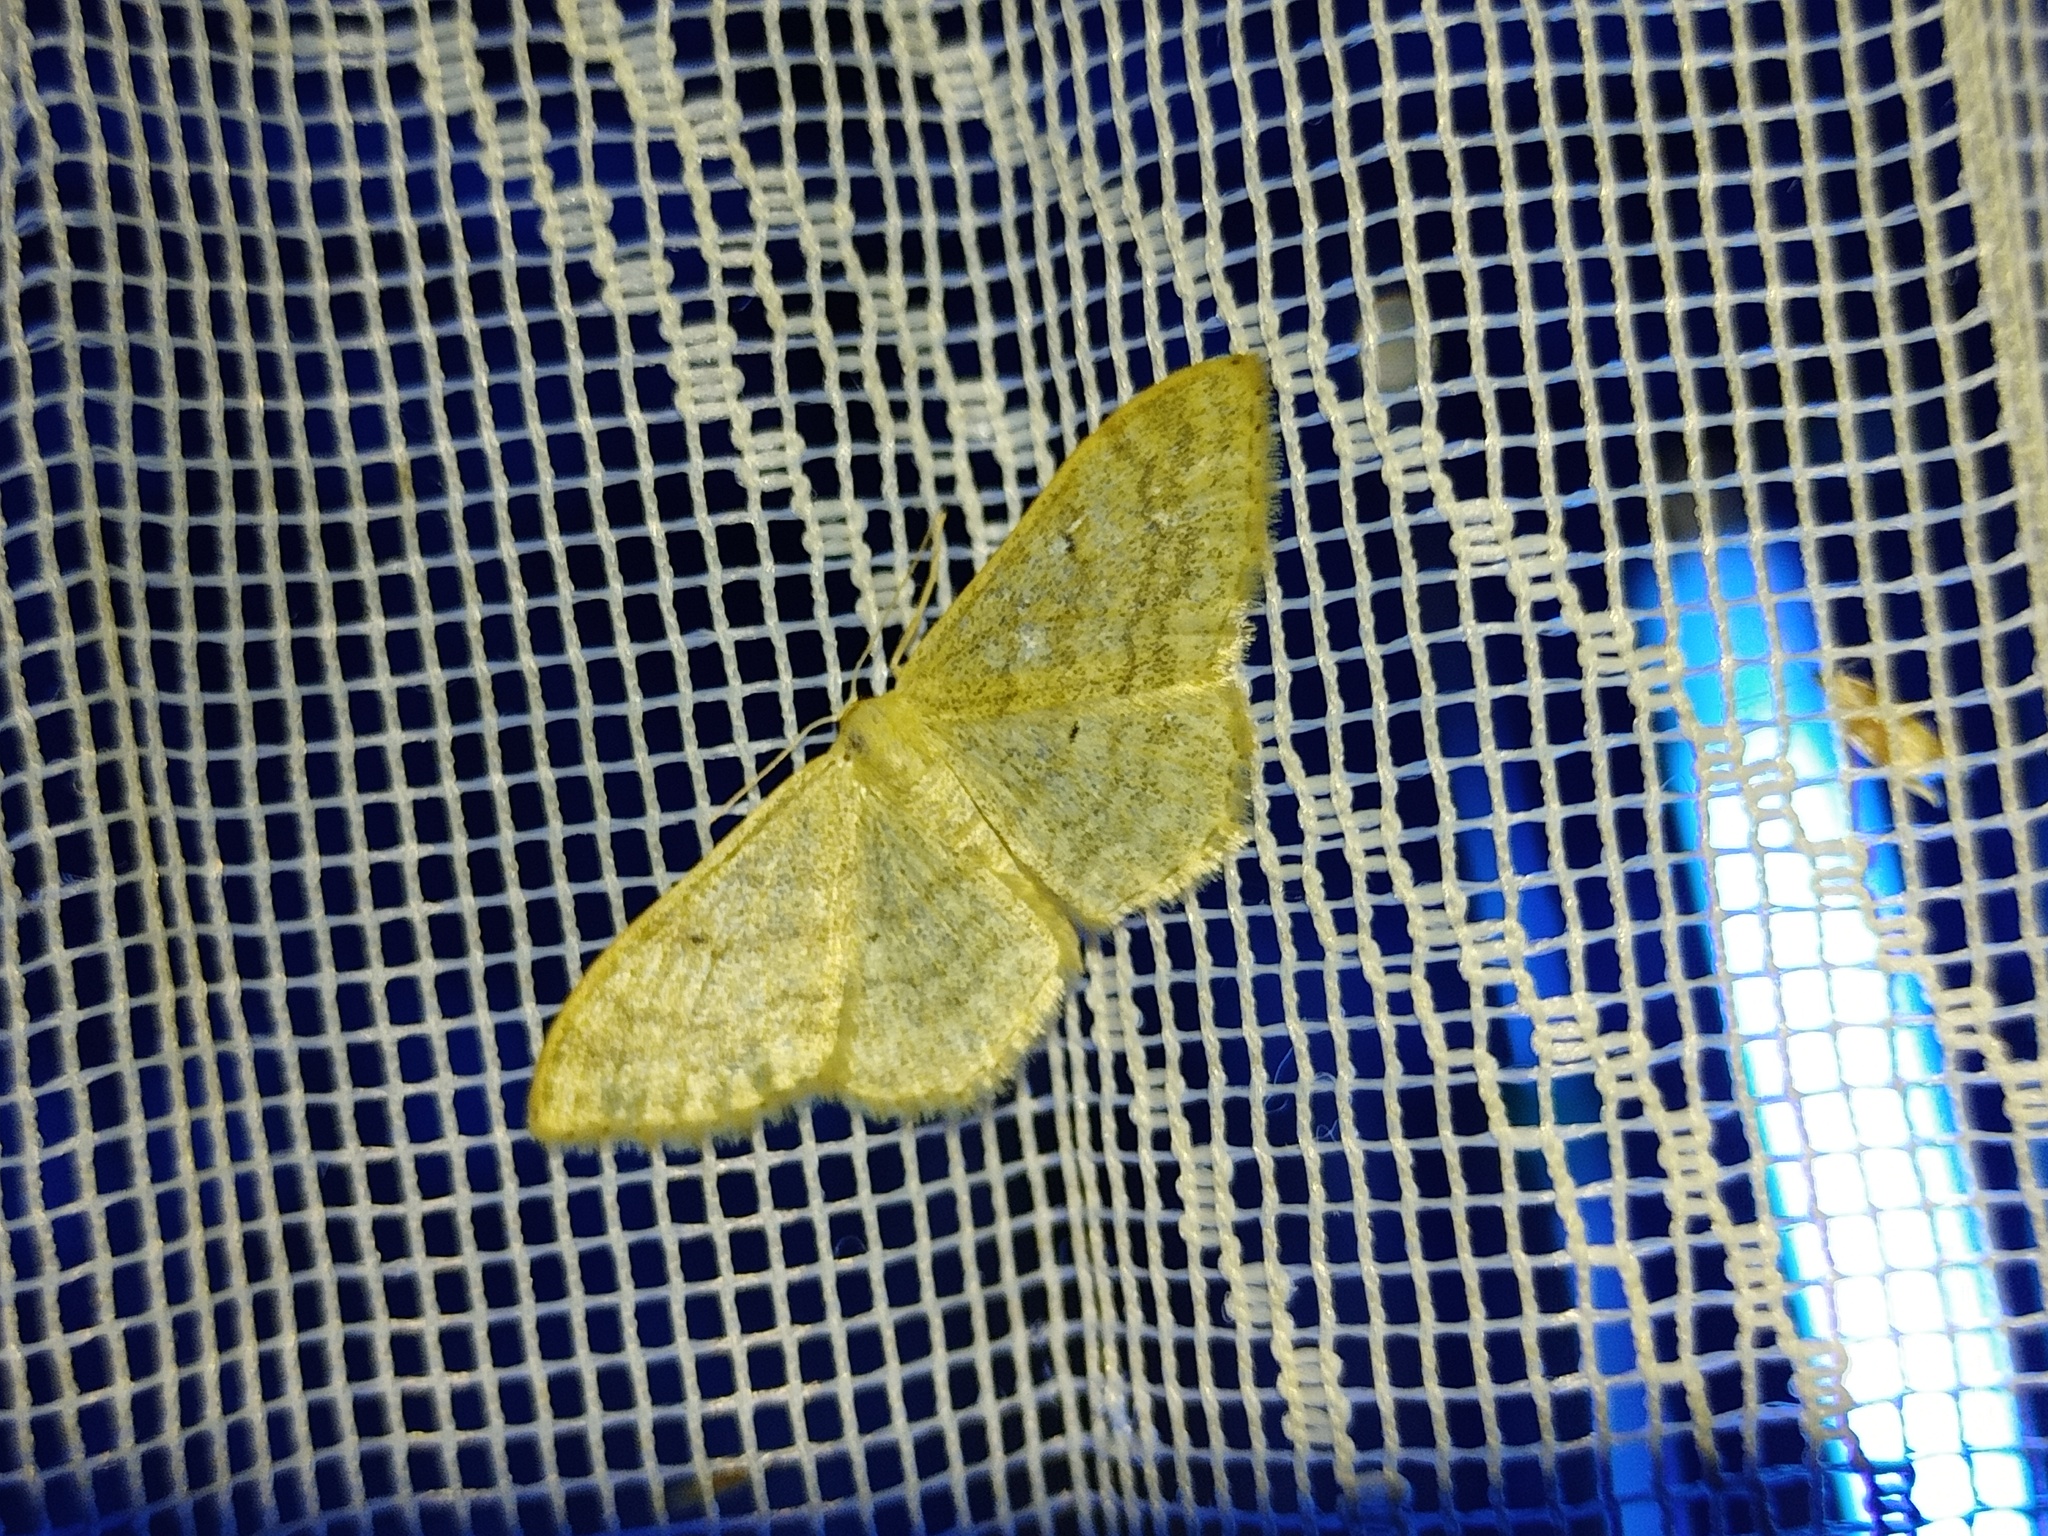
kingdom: Animalia
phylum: Arthropoda
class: Insecta
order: Lepidoptera
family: Geometridae
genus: Idaea
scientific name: Idaea maritimaria
